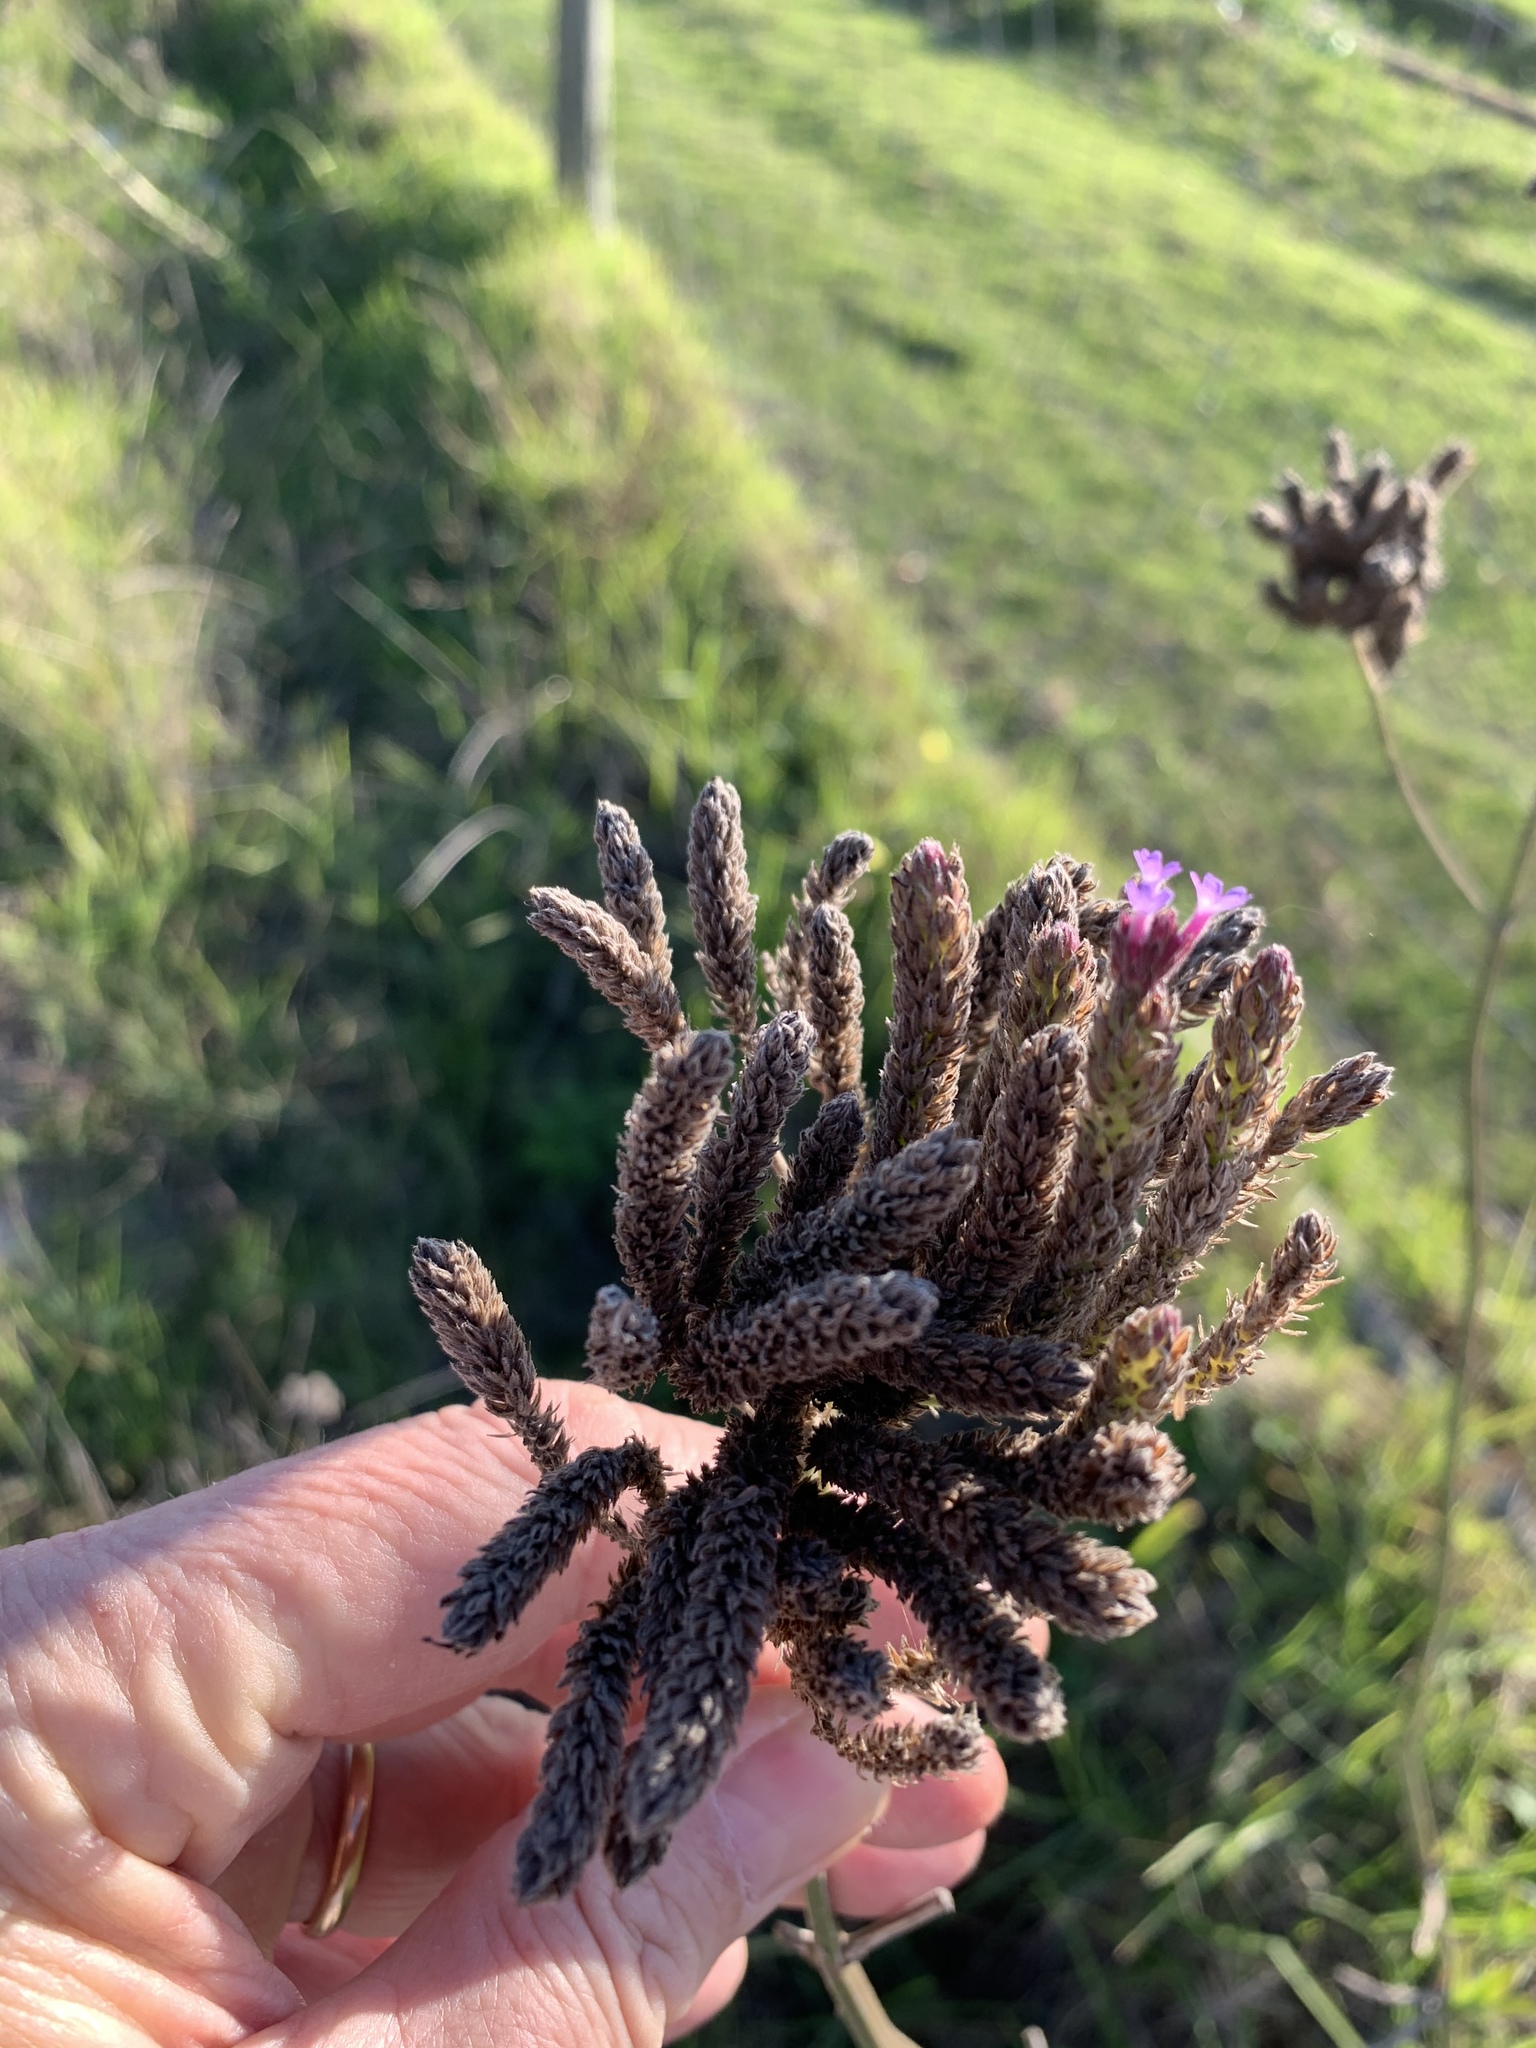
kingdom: Plantae
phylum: Tracheophyta
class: Magnoliopsida
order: Lamiales
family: Verbenaceae
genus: Verbena
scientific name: Verbena bonariensis
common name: Purpletop vervain
